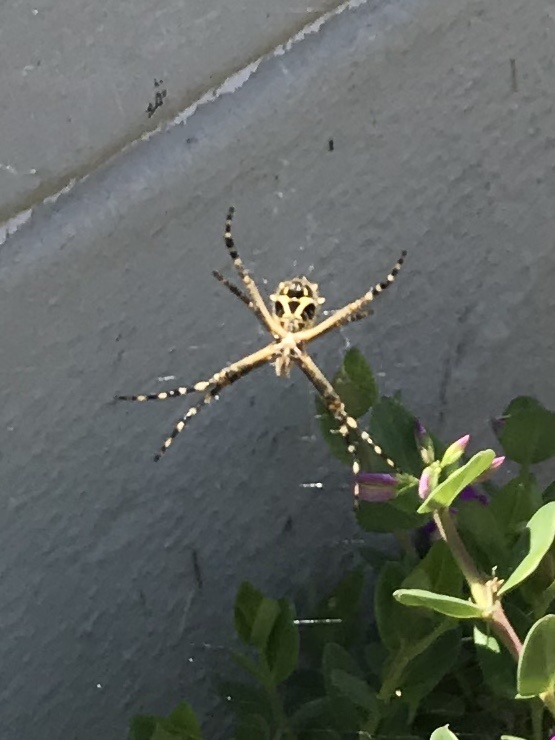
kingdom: Animalia
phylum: Arthropoda
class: Arachnida
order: Araneae
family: Araneidae
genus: Argiope
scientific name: Argiope argentata
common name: Orb weavers
